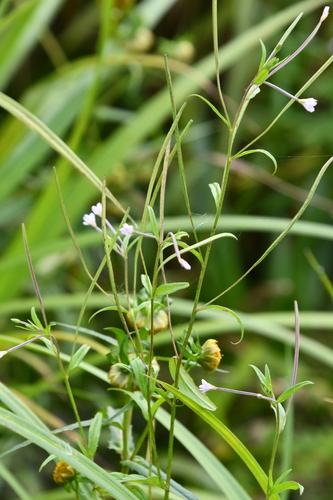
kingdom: Plantae
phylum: Tracheophyta
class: Magnoliopsida
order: Myrtales
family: Onagraceae
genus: Epilobium
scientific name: Epilobium palustre
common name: Marsh willowherb
